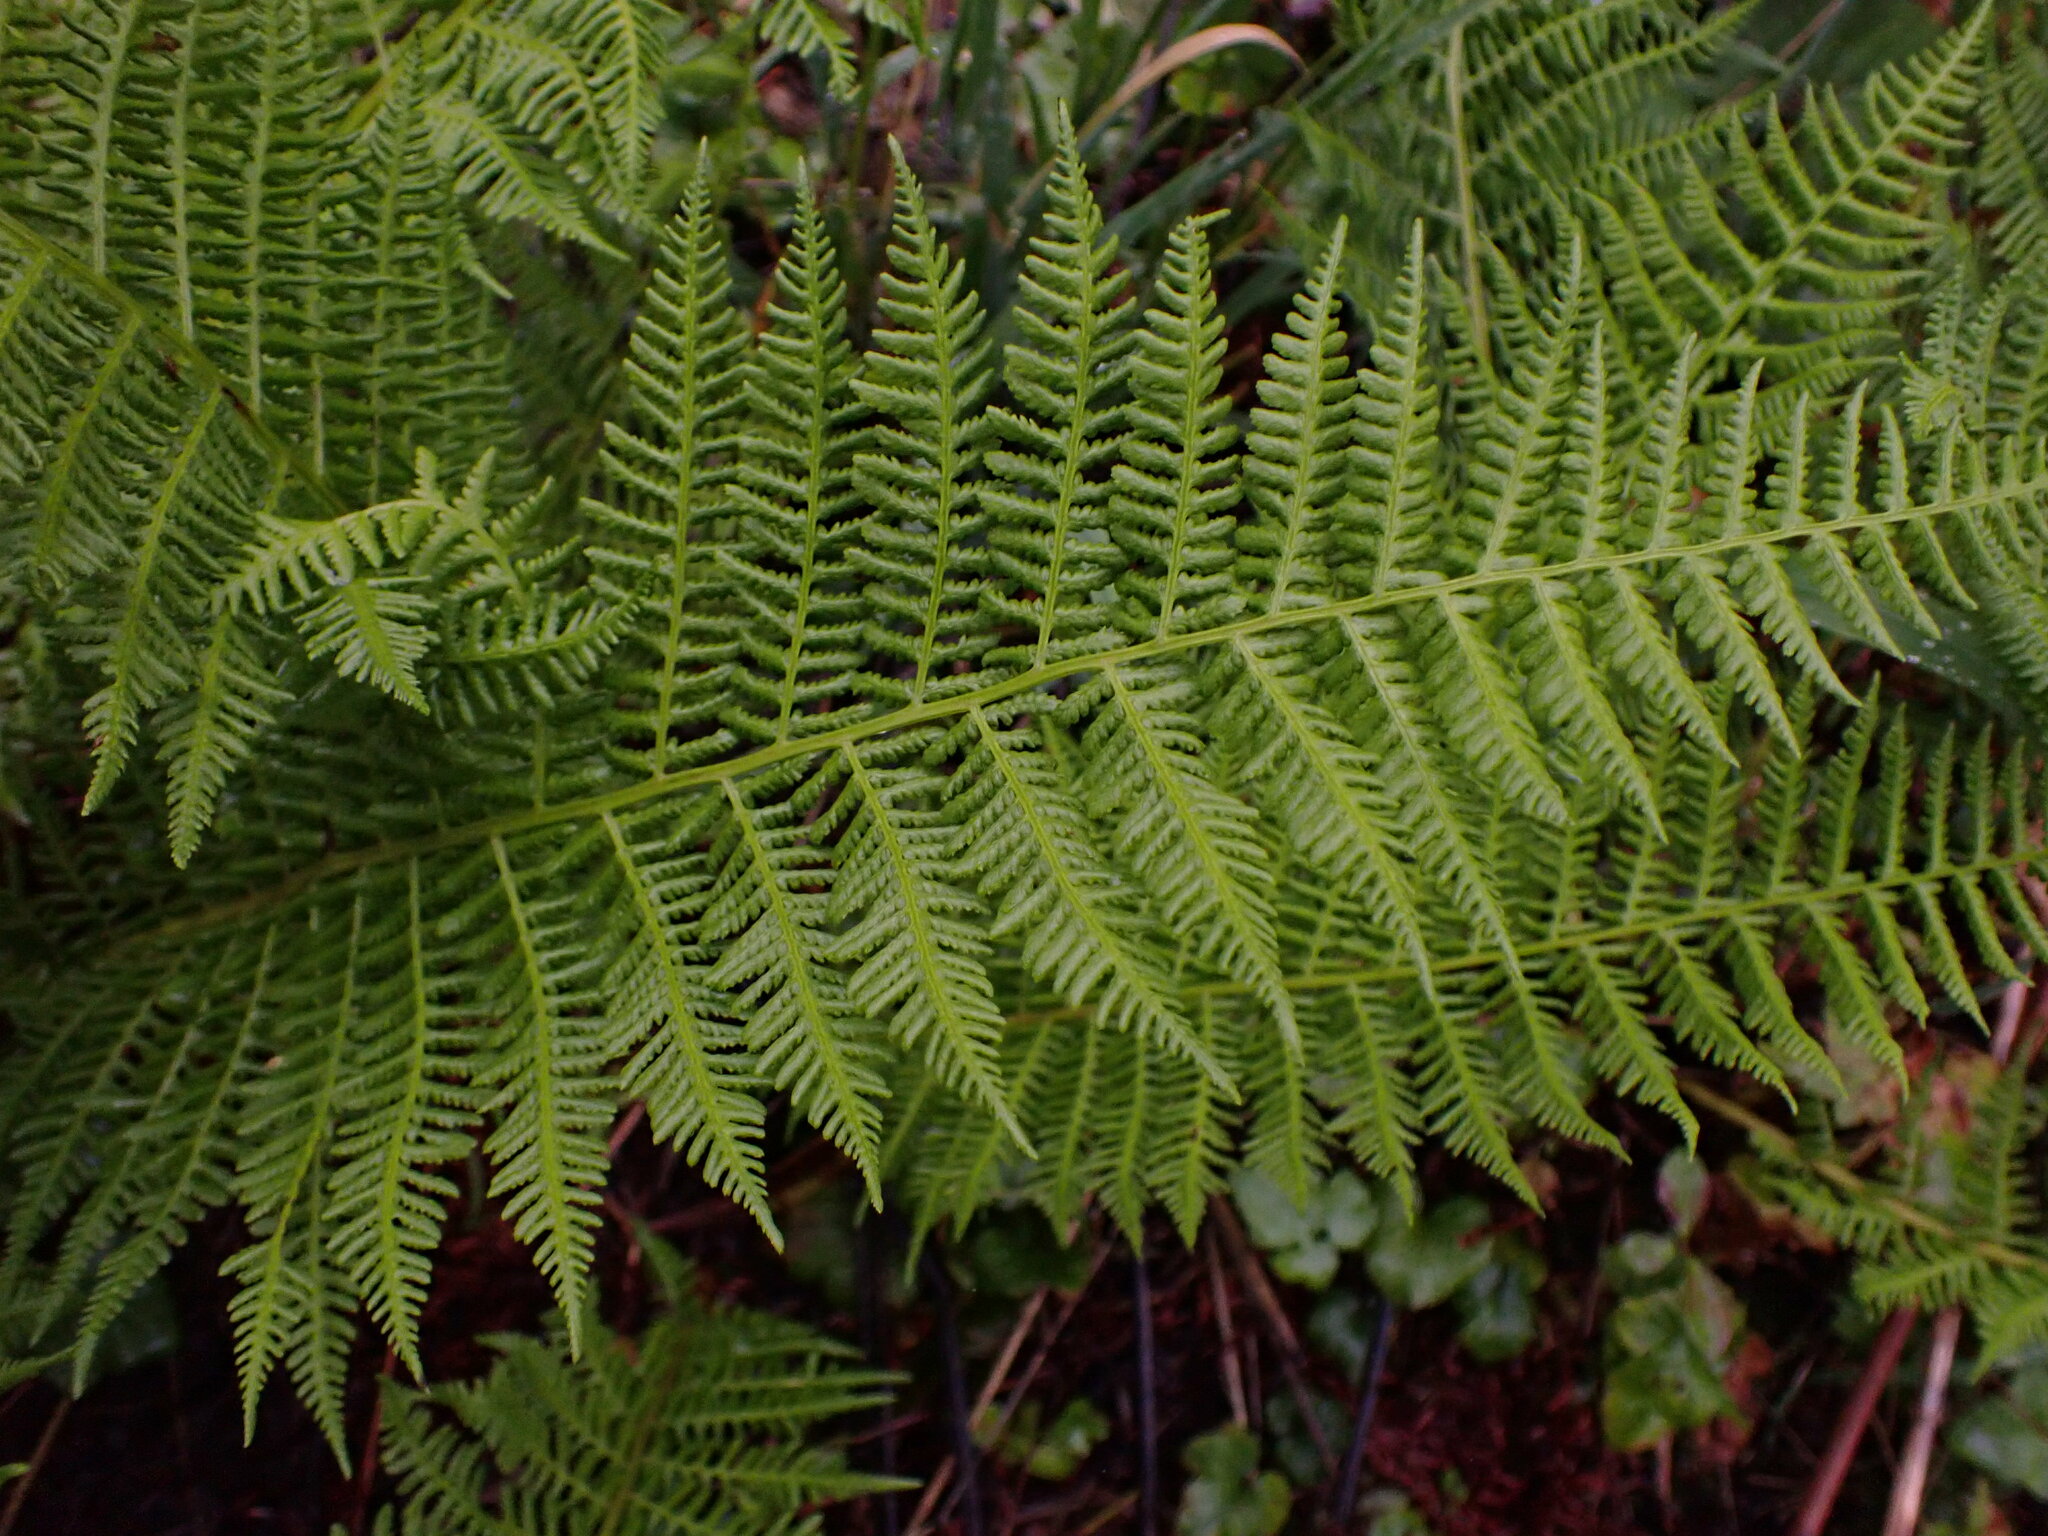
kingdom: Plantae
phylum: Tracheophyta
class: Polypodiopsida
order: Polypodiales
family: Athyriaceae
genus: Athyrium
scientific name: Athyrium cyclosorum
